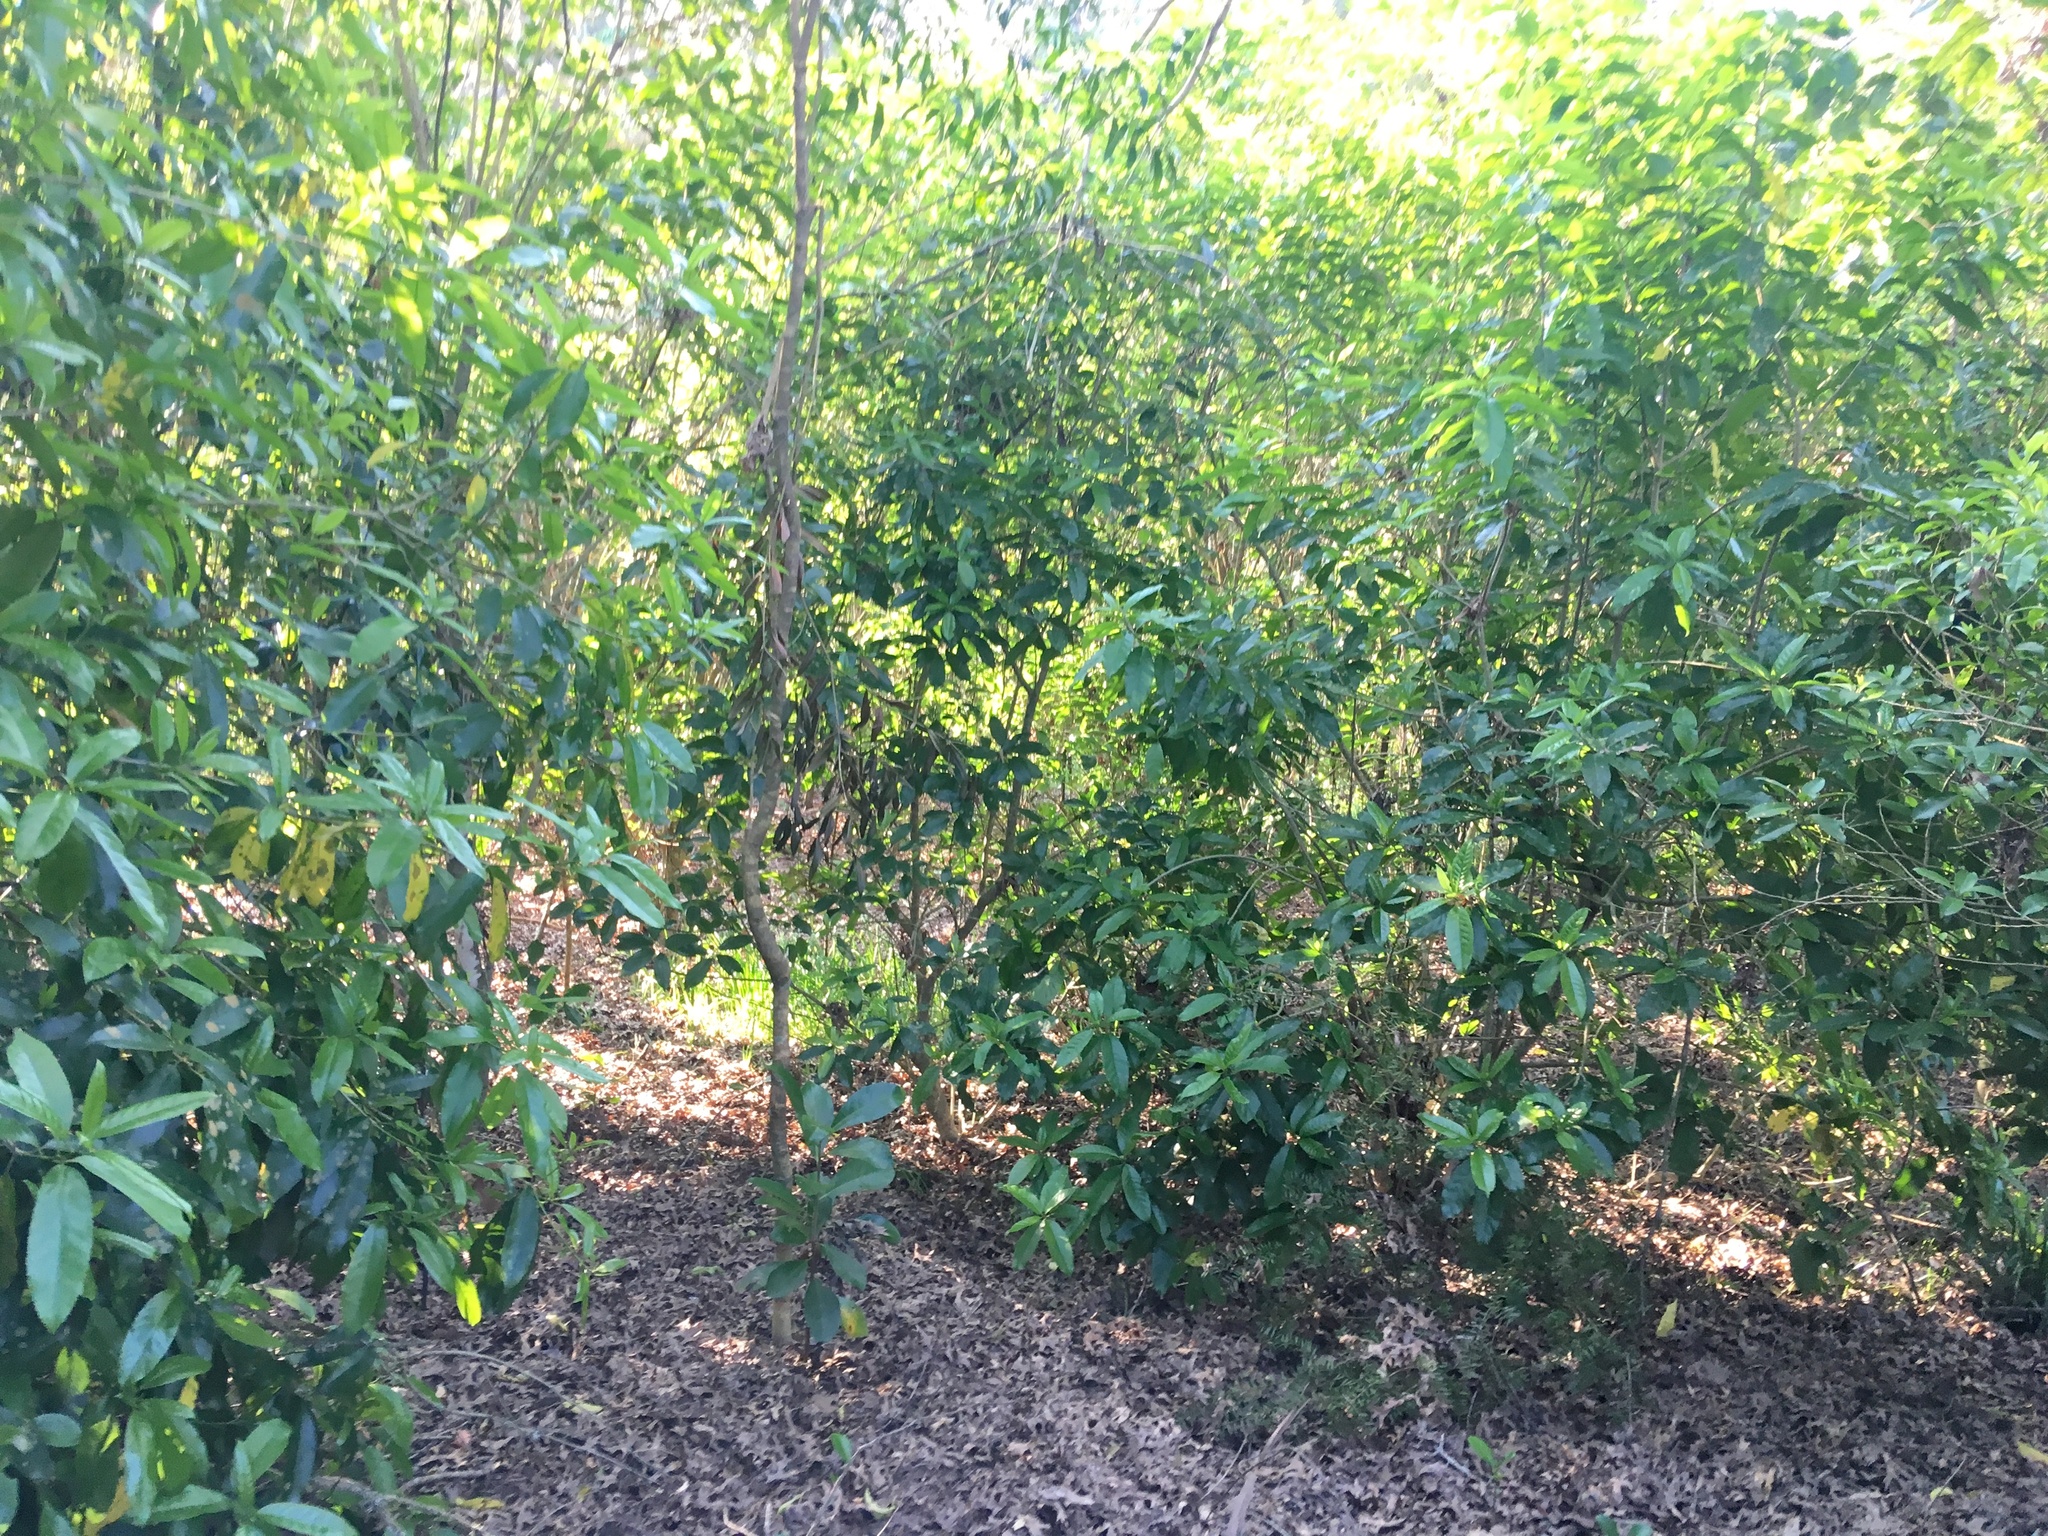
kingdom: Plantae
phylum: Tracheophyta
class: Magnoliopsida
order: Malpighiales
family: Violaceae
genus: Melicytus
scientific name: Melicytus ramiflorus
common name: Mahoe
